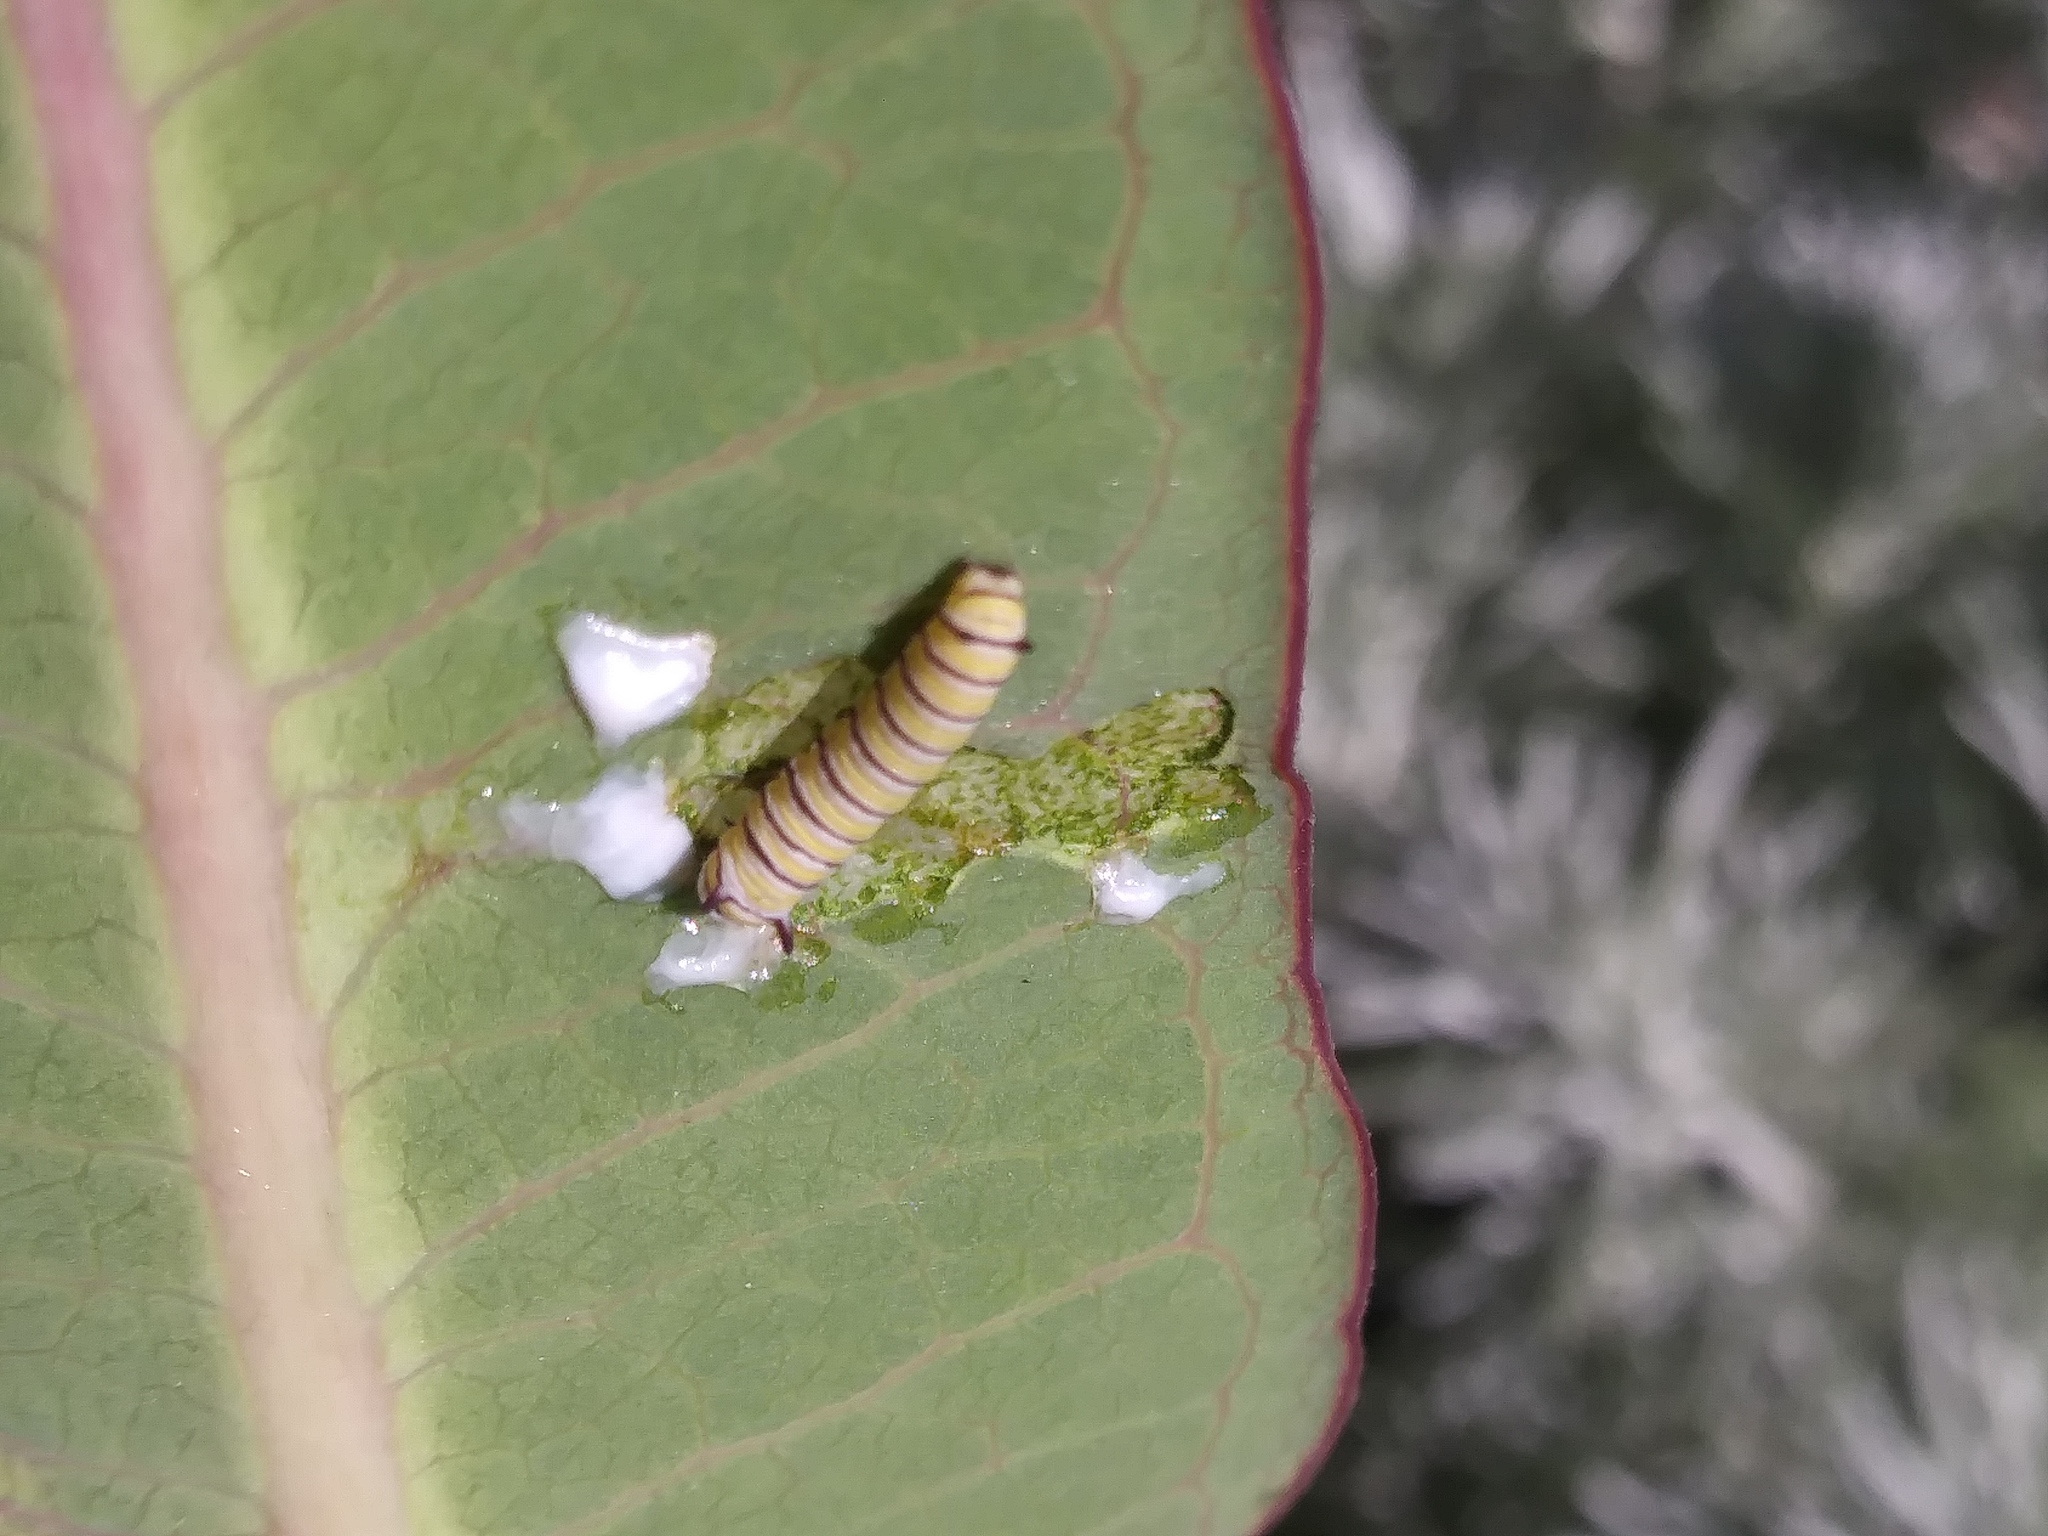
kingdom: Animalia
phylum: Arthropoda
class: Insecta
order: Lepidoptera
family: Nymphalidae
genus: Danaus
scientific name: Danaus plexippus
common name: Monarch
